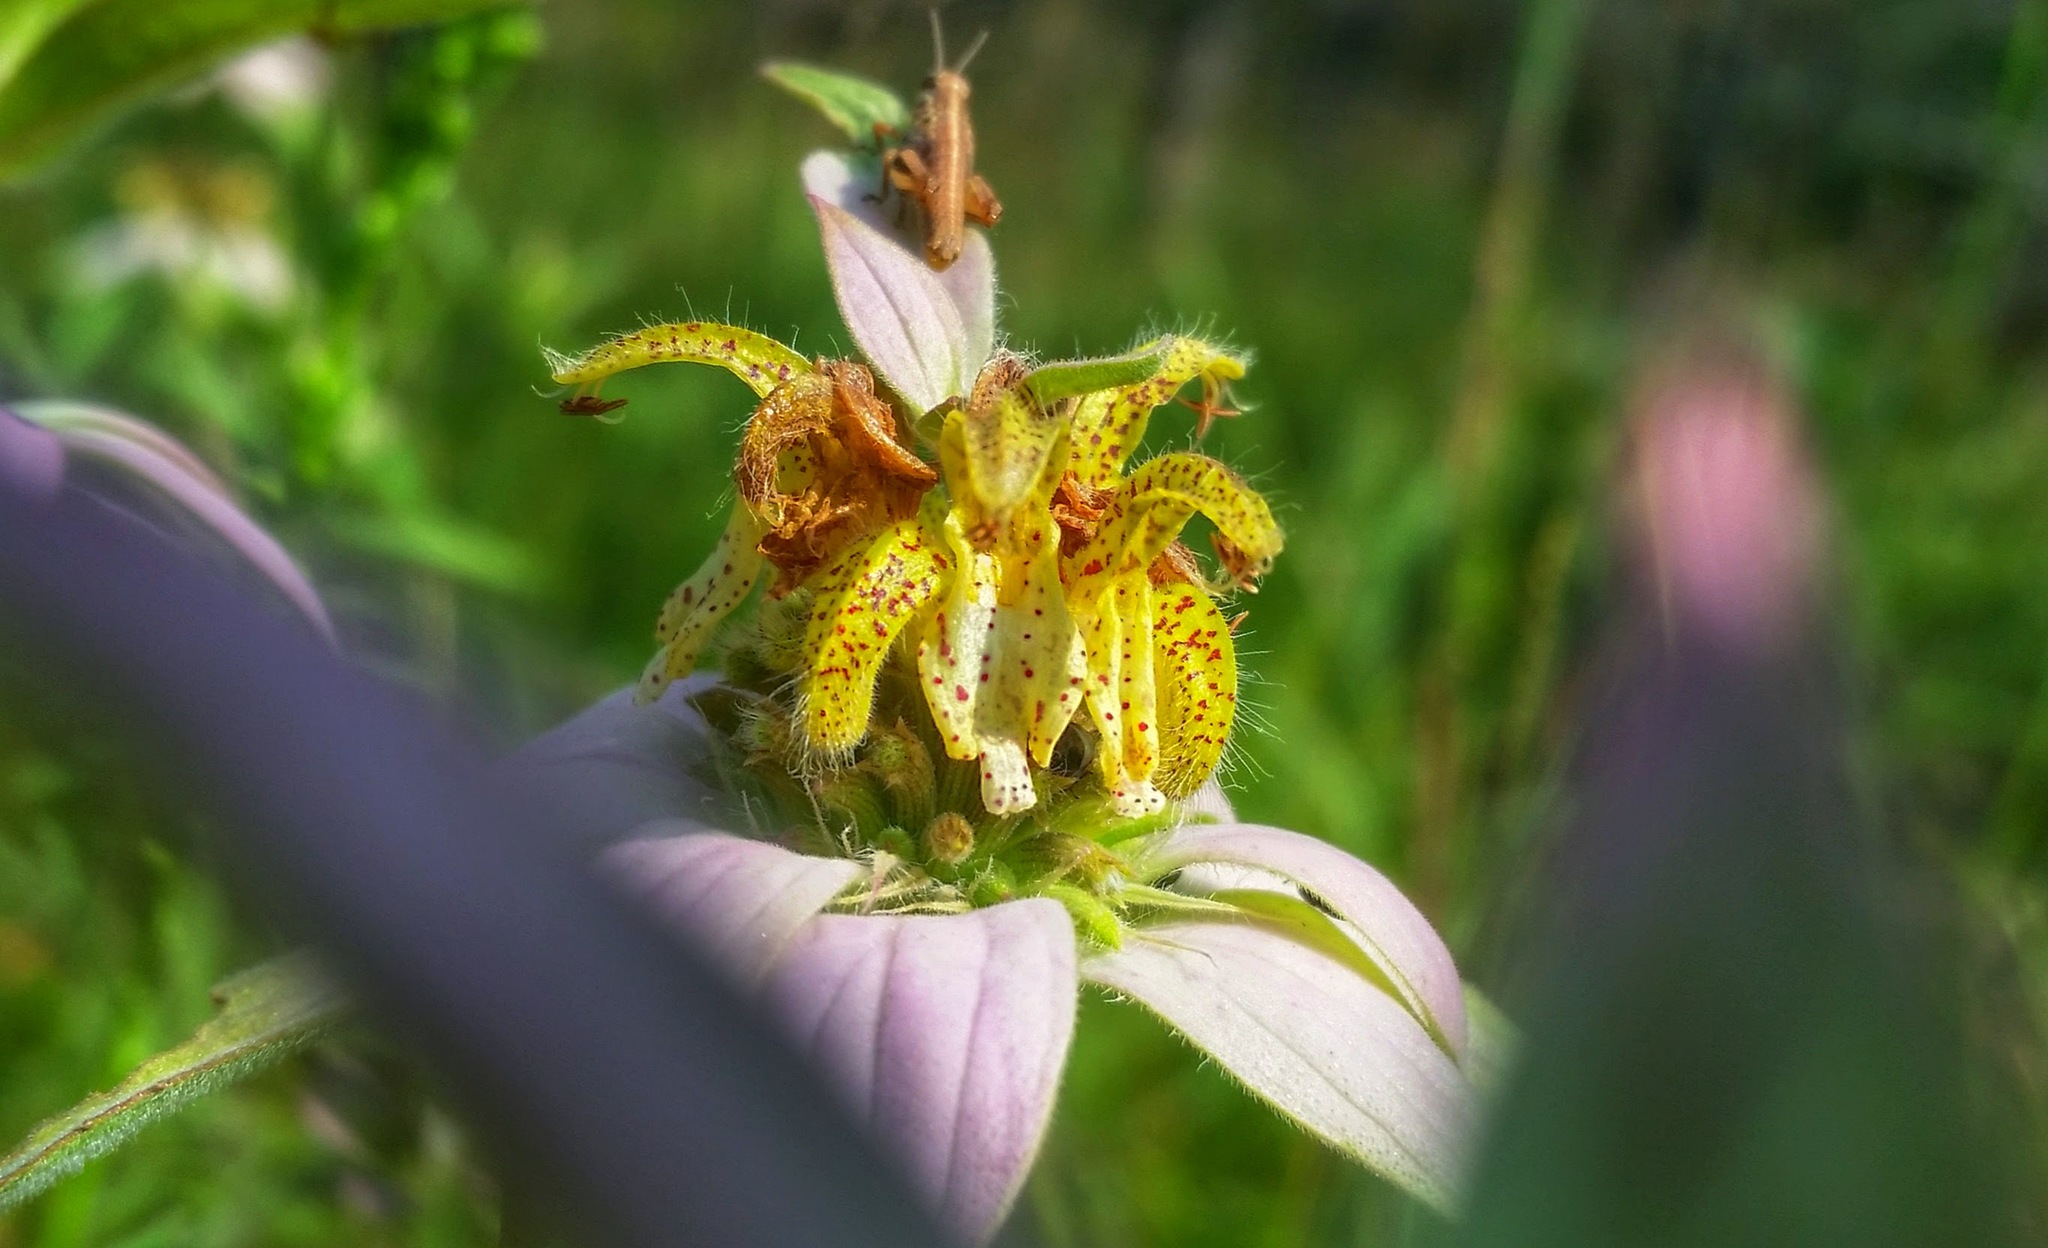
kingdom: Plantae
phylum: Tracheophyta
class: Magnoliopsida
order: Lamiales
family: Lamiaceae
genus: Monarda
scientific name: Monarda punctata
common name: Dotted monarda
